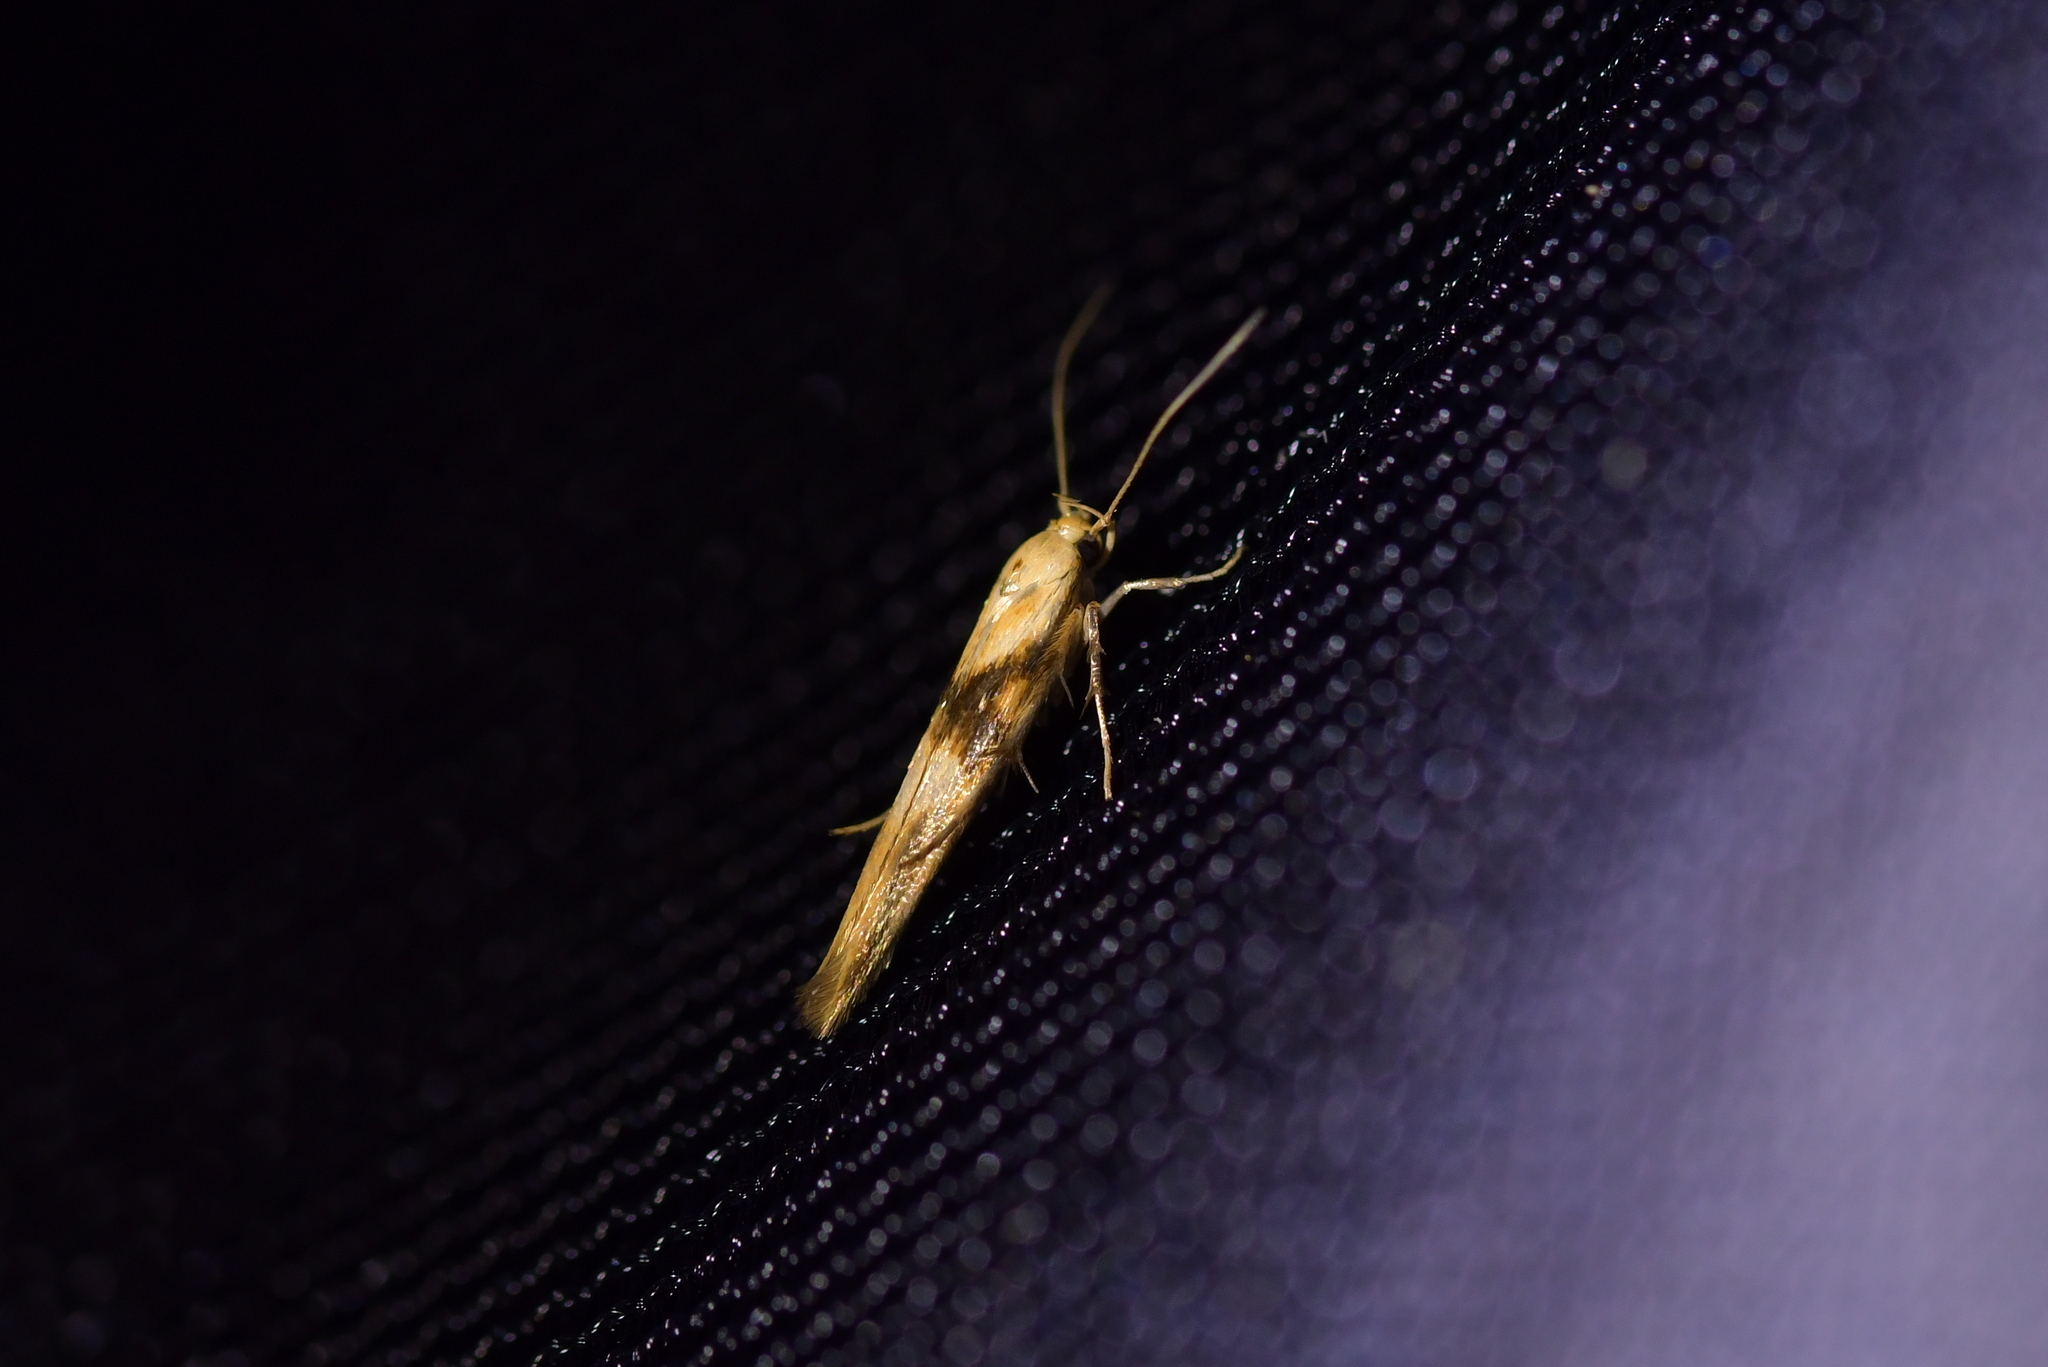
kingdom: Animalia
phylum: Arthropoda
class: Insecta
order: Lepidoptera
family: Stathmopodidae
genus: Stathmopoda
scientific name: Stathmopoda aposema
